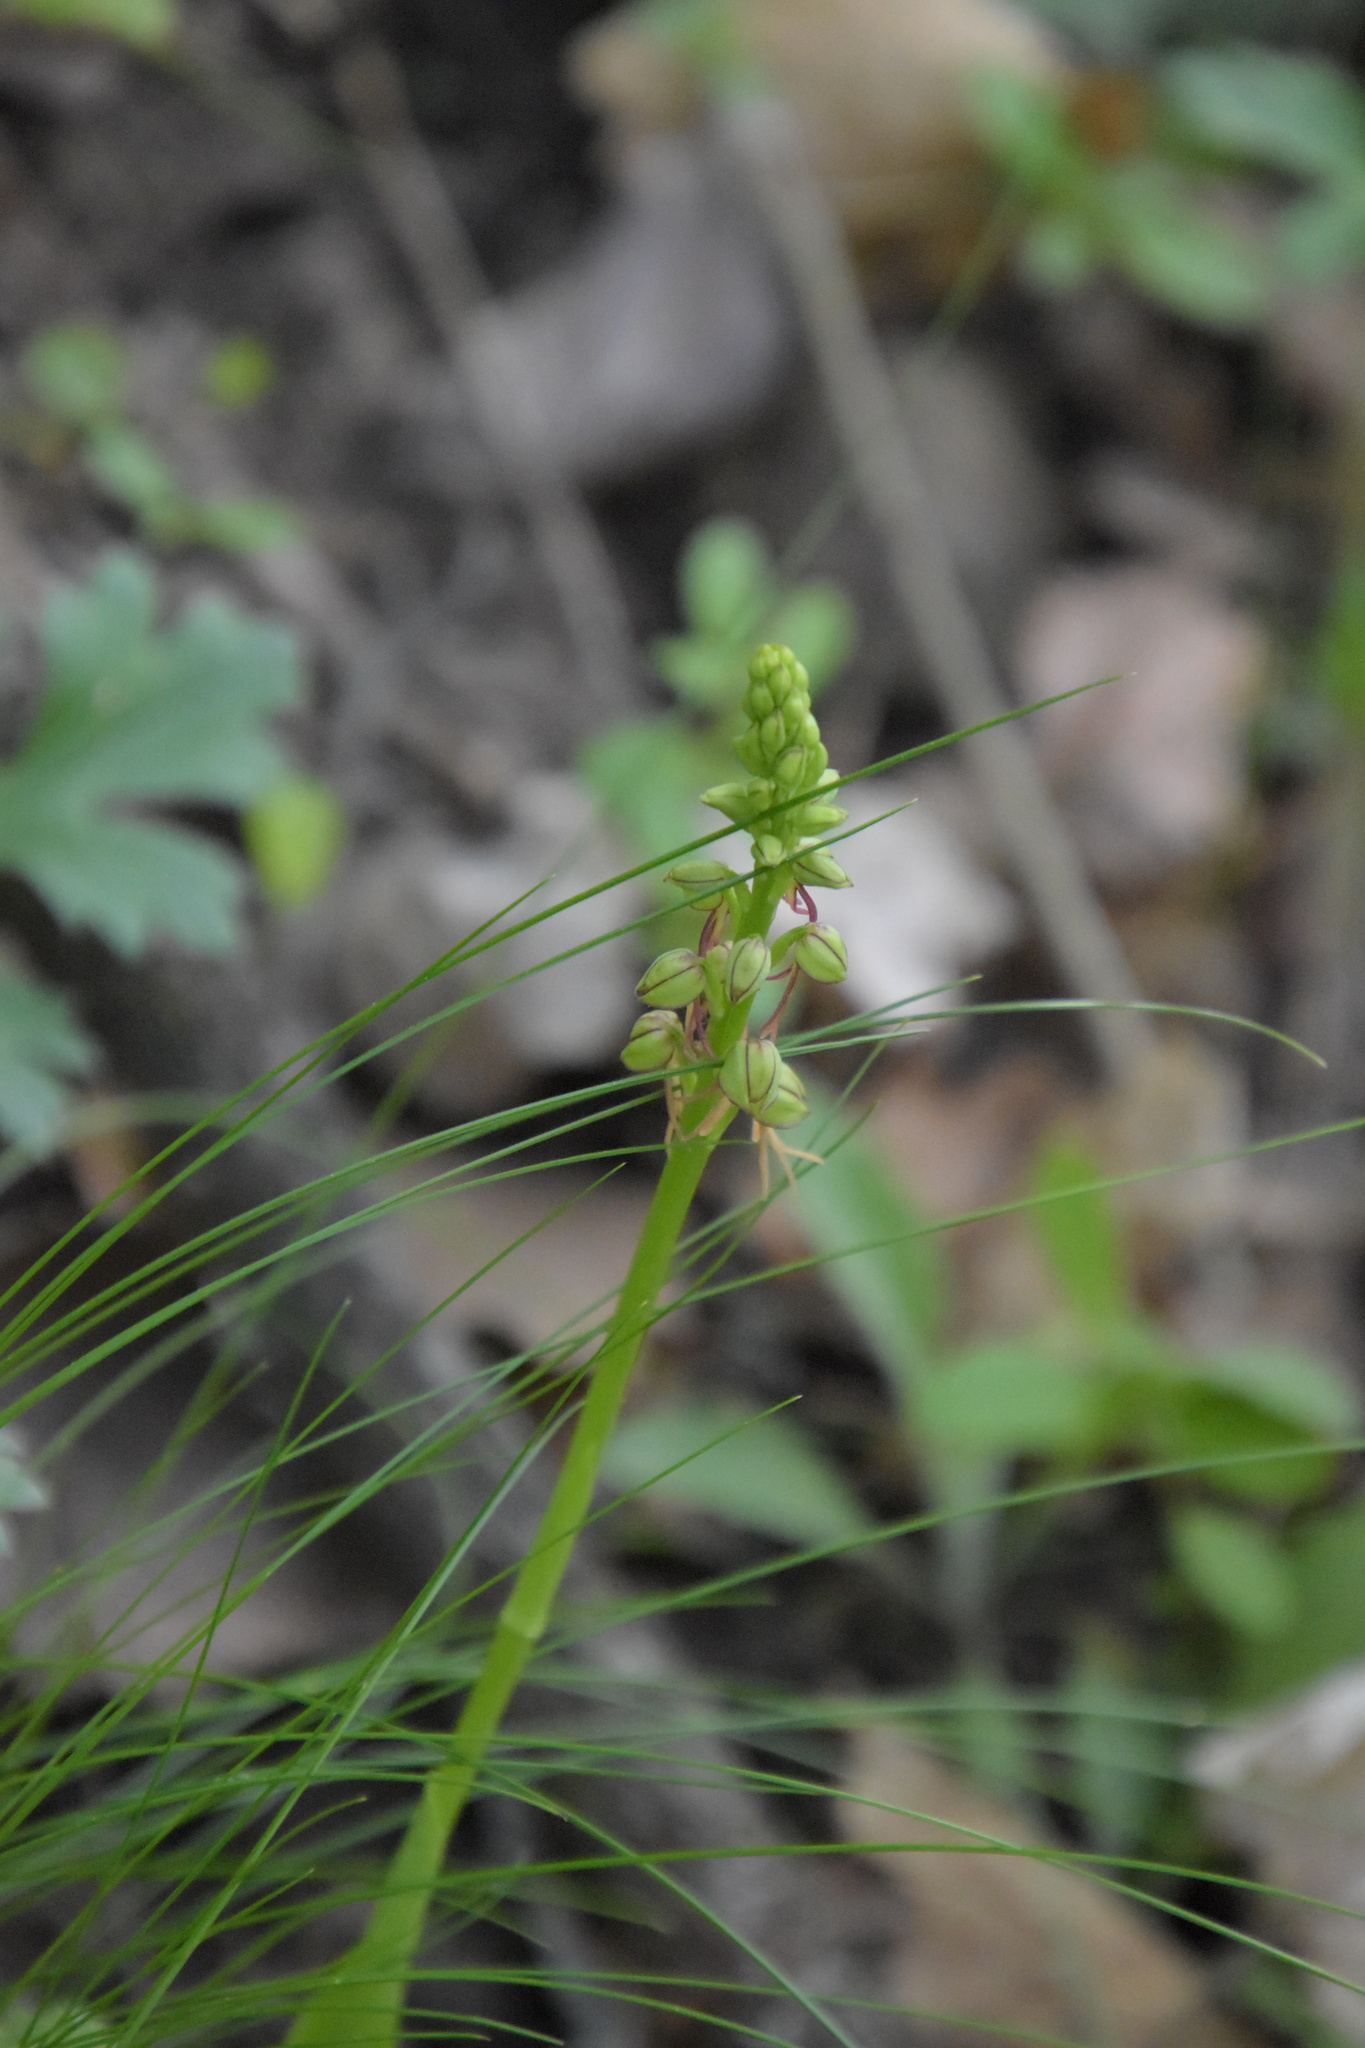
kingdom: Plantae
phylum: Tracheophyta
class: Liliopsida
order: Asparagales
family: Orchidaceae
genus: Orchis
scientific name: Orchis anthropophora
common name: Man orchid
